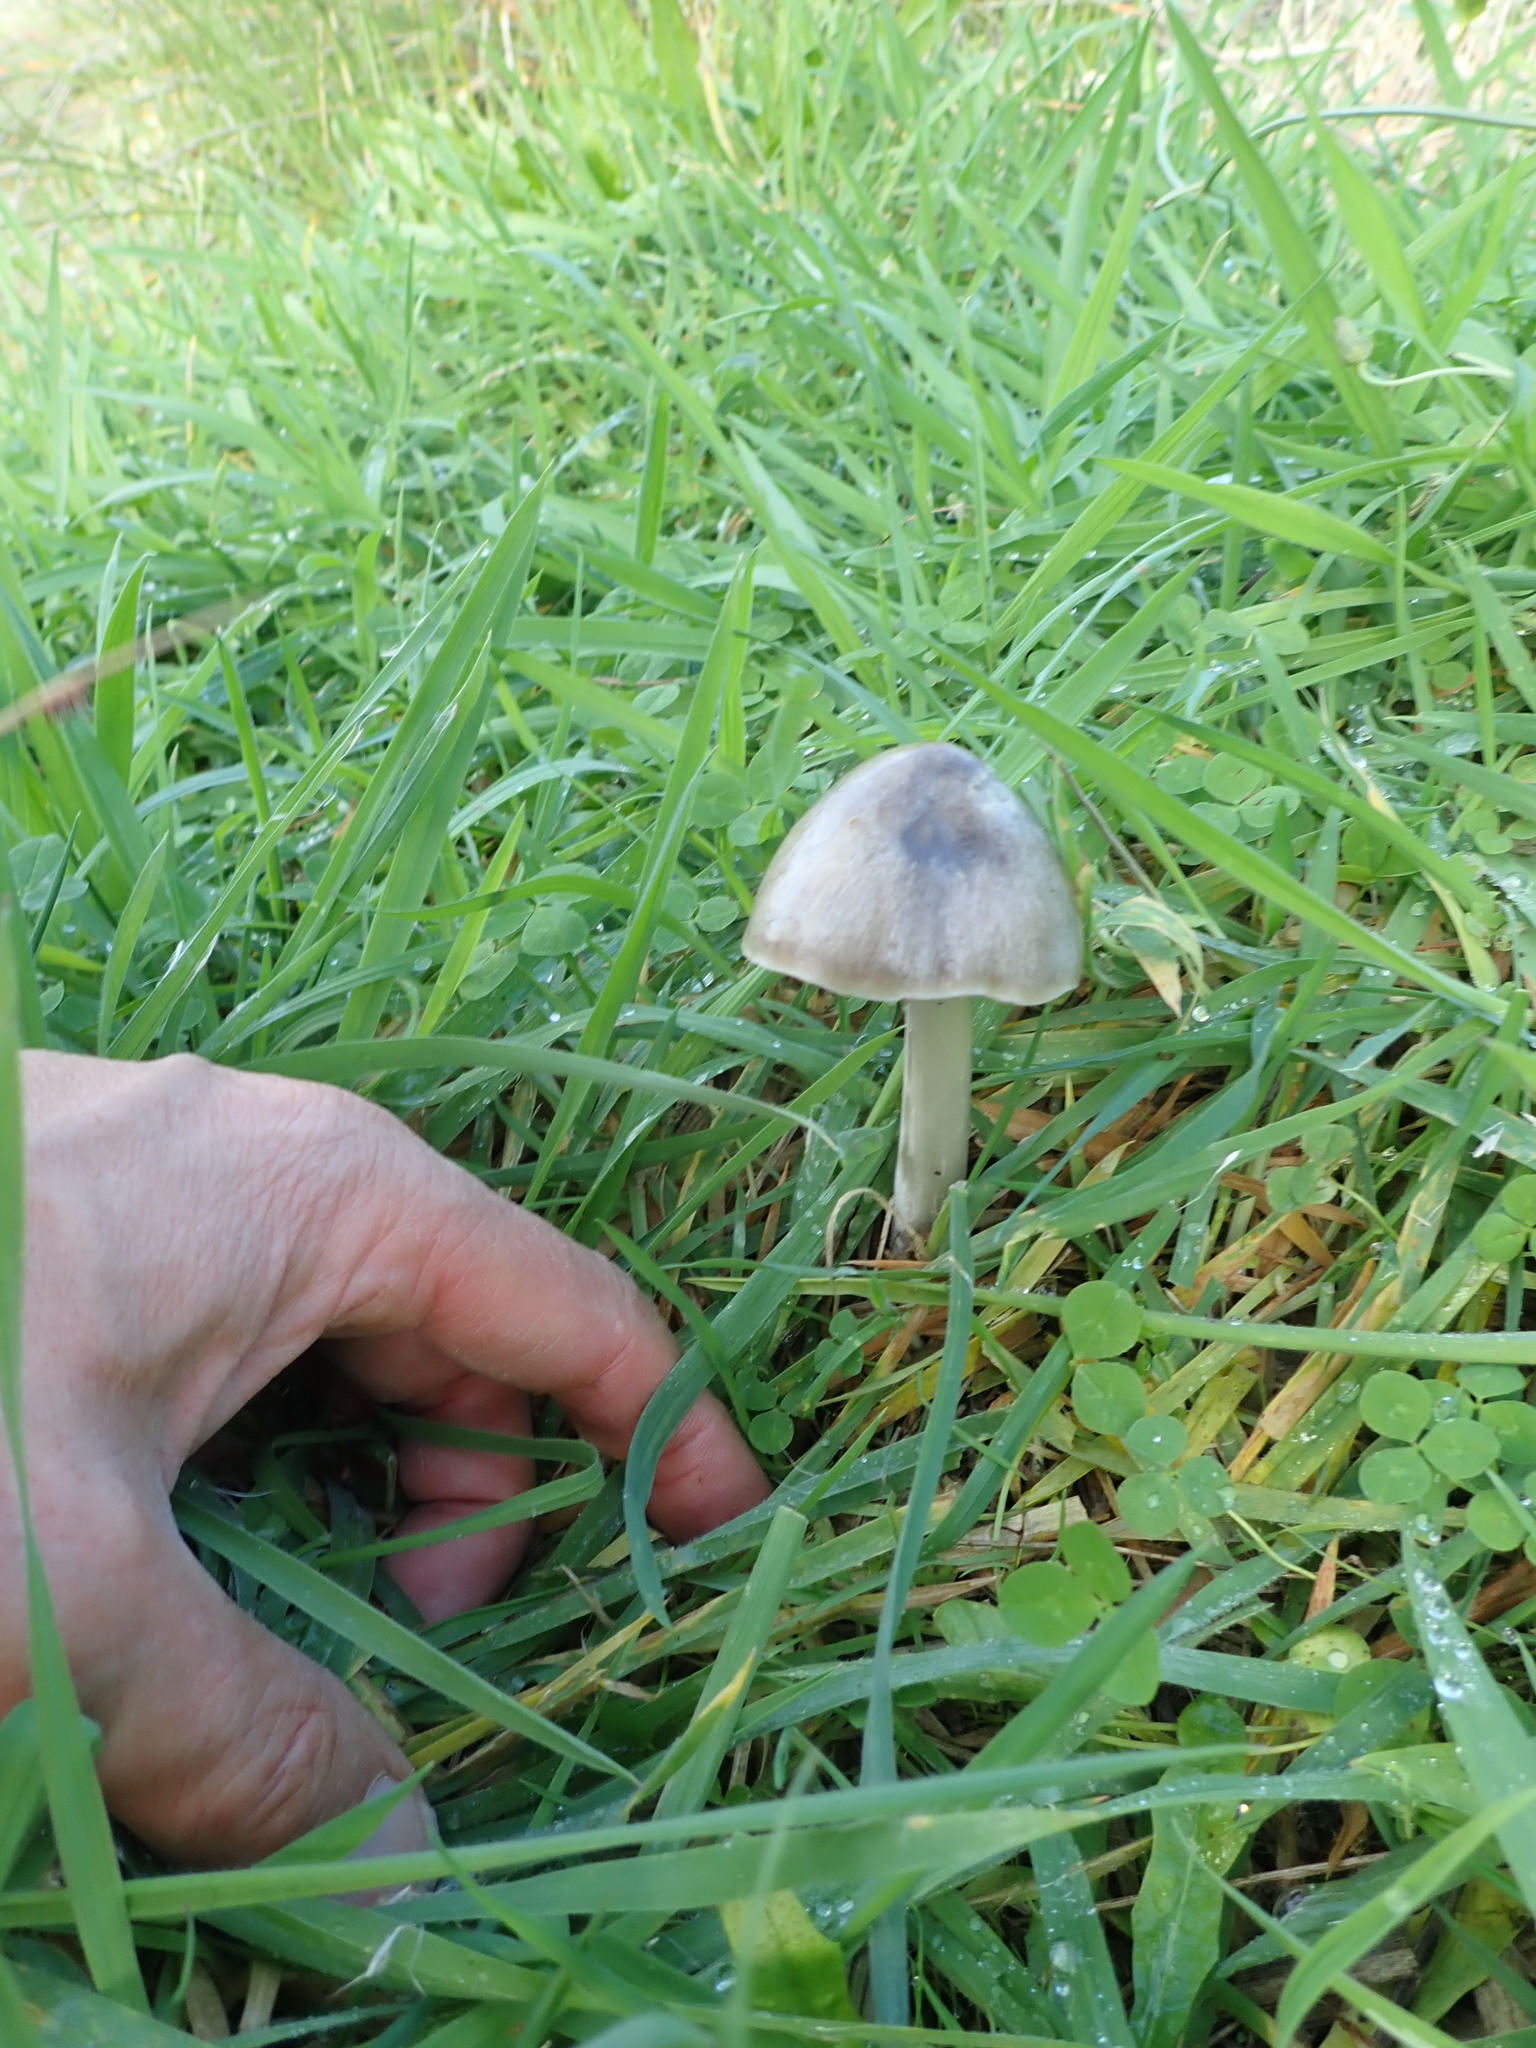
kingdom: Fungi
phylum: Basidiomycota
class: Agaricomycetes
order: Agaricales
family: Pluteaceae
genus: Volvopluteus
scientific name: Volvopluteus gloiocephalus
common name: Stubble rosegill
